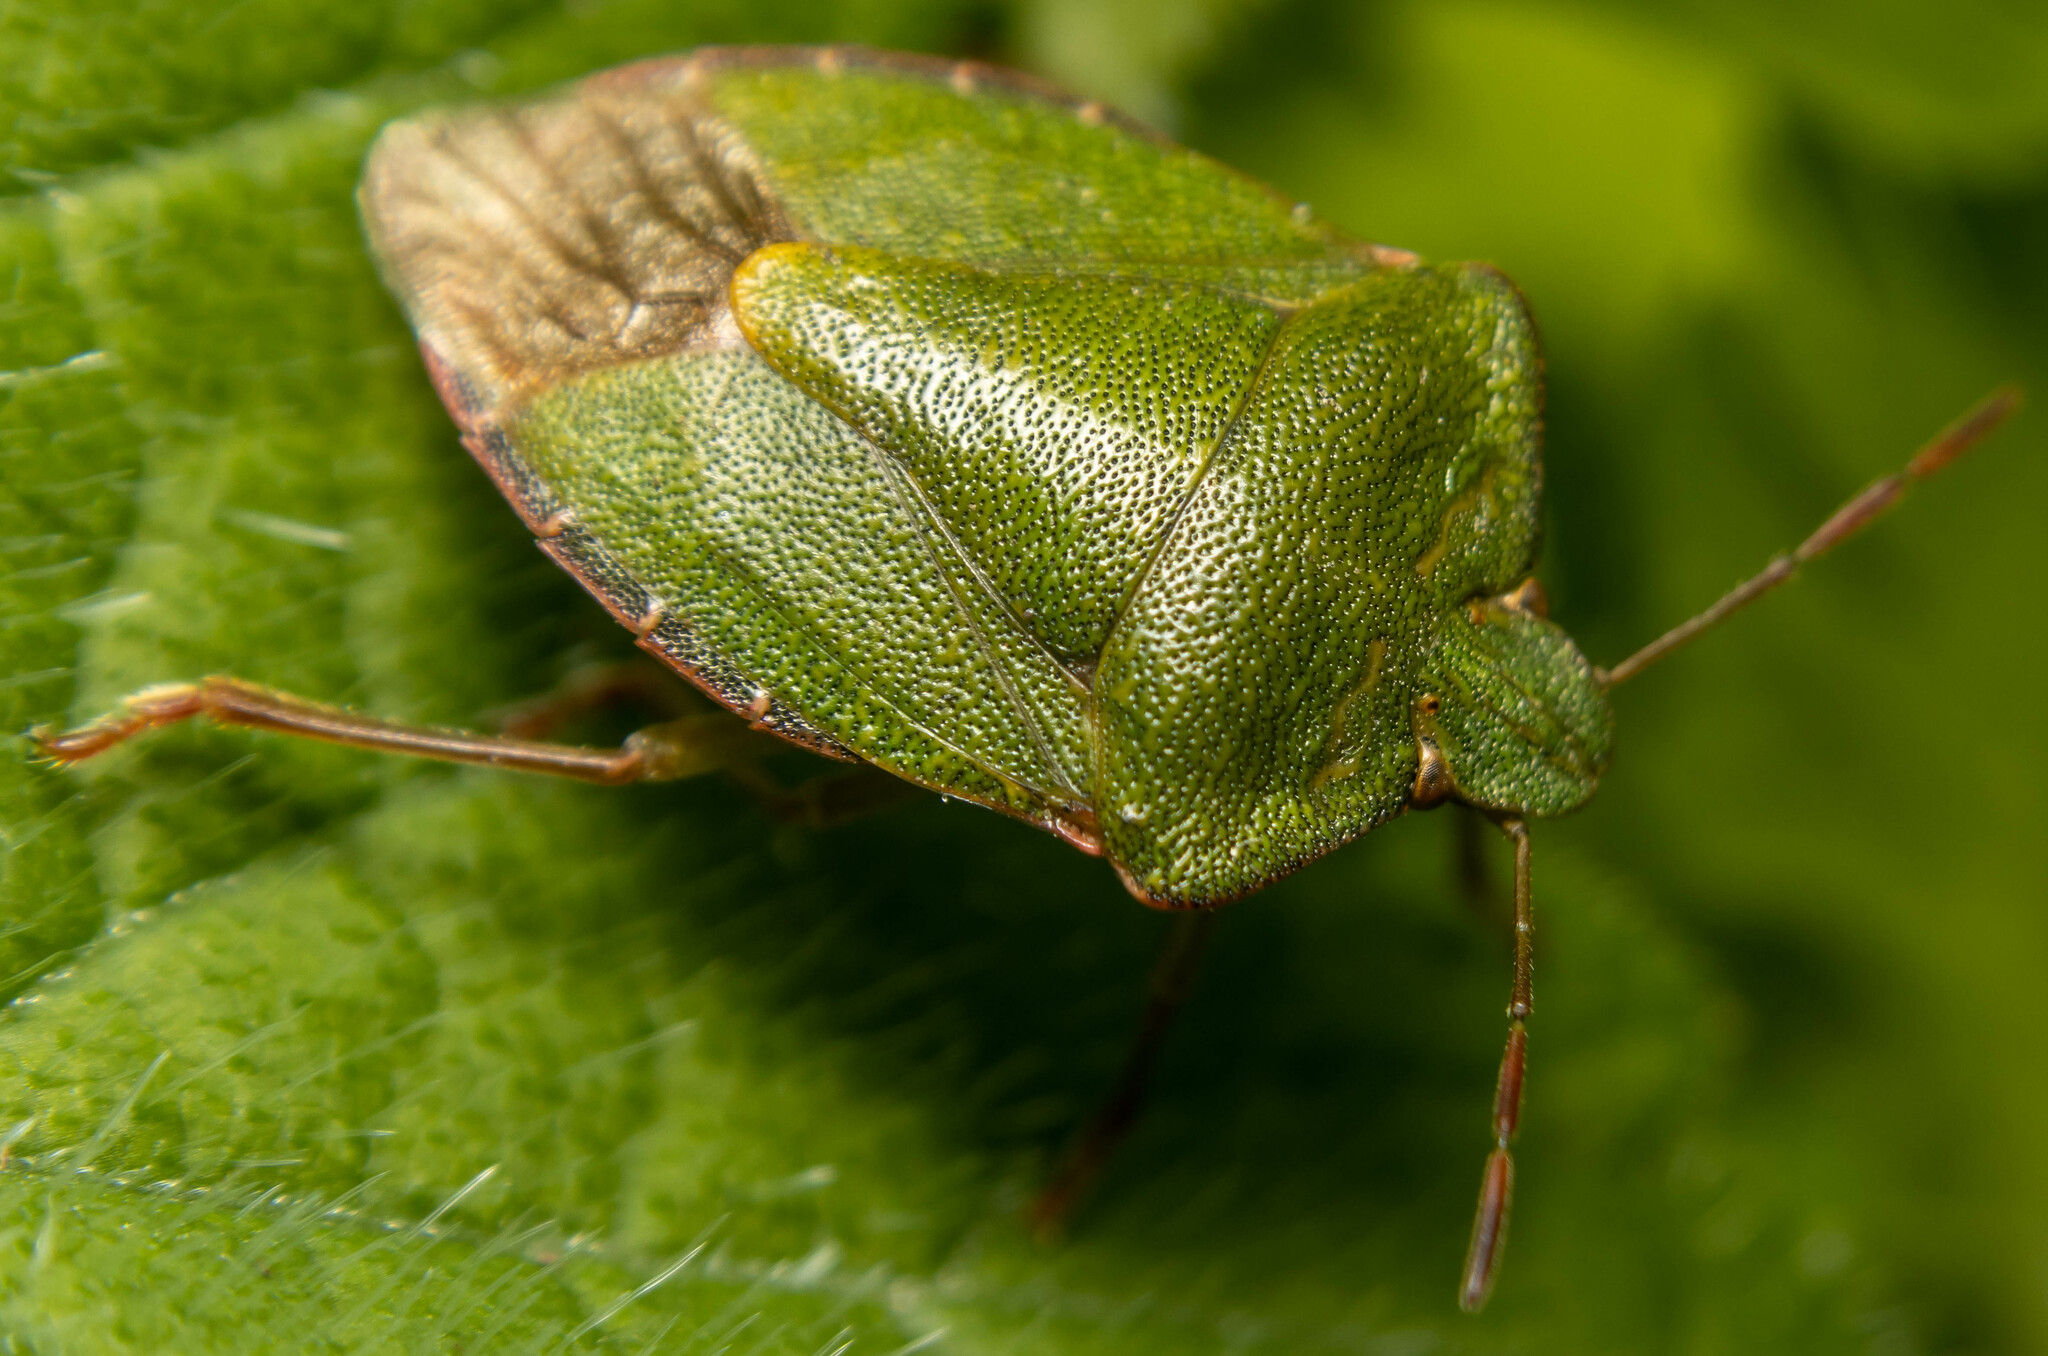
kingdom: Animalia
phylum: Arthropoda
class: Insecta
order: Hemiptera
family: Pentatomidae
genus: Palomena
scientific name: Palomena prasina
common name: Green shieldbug
